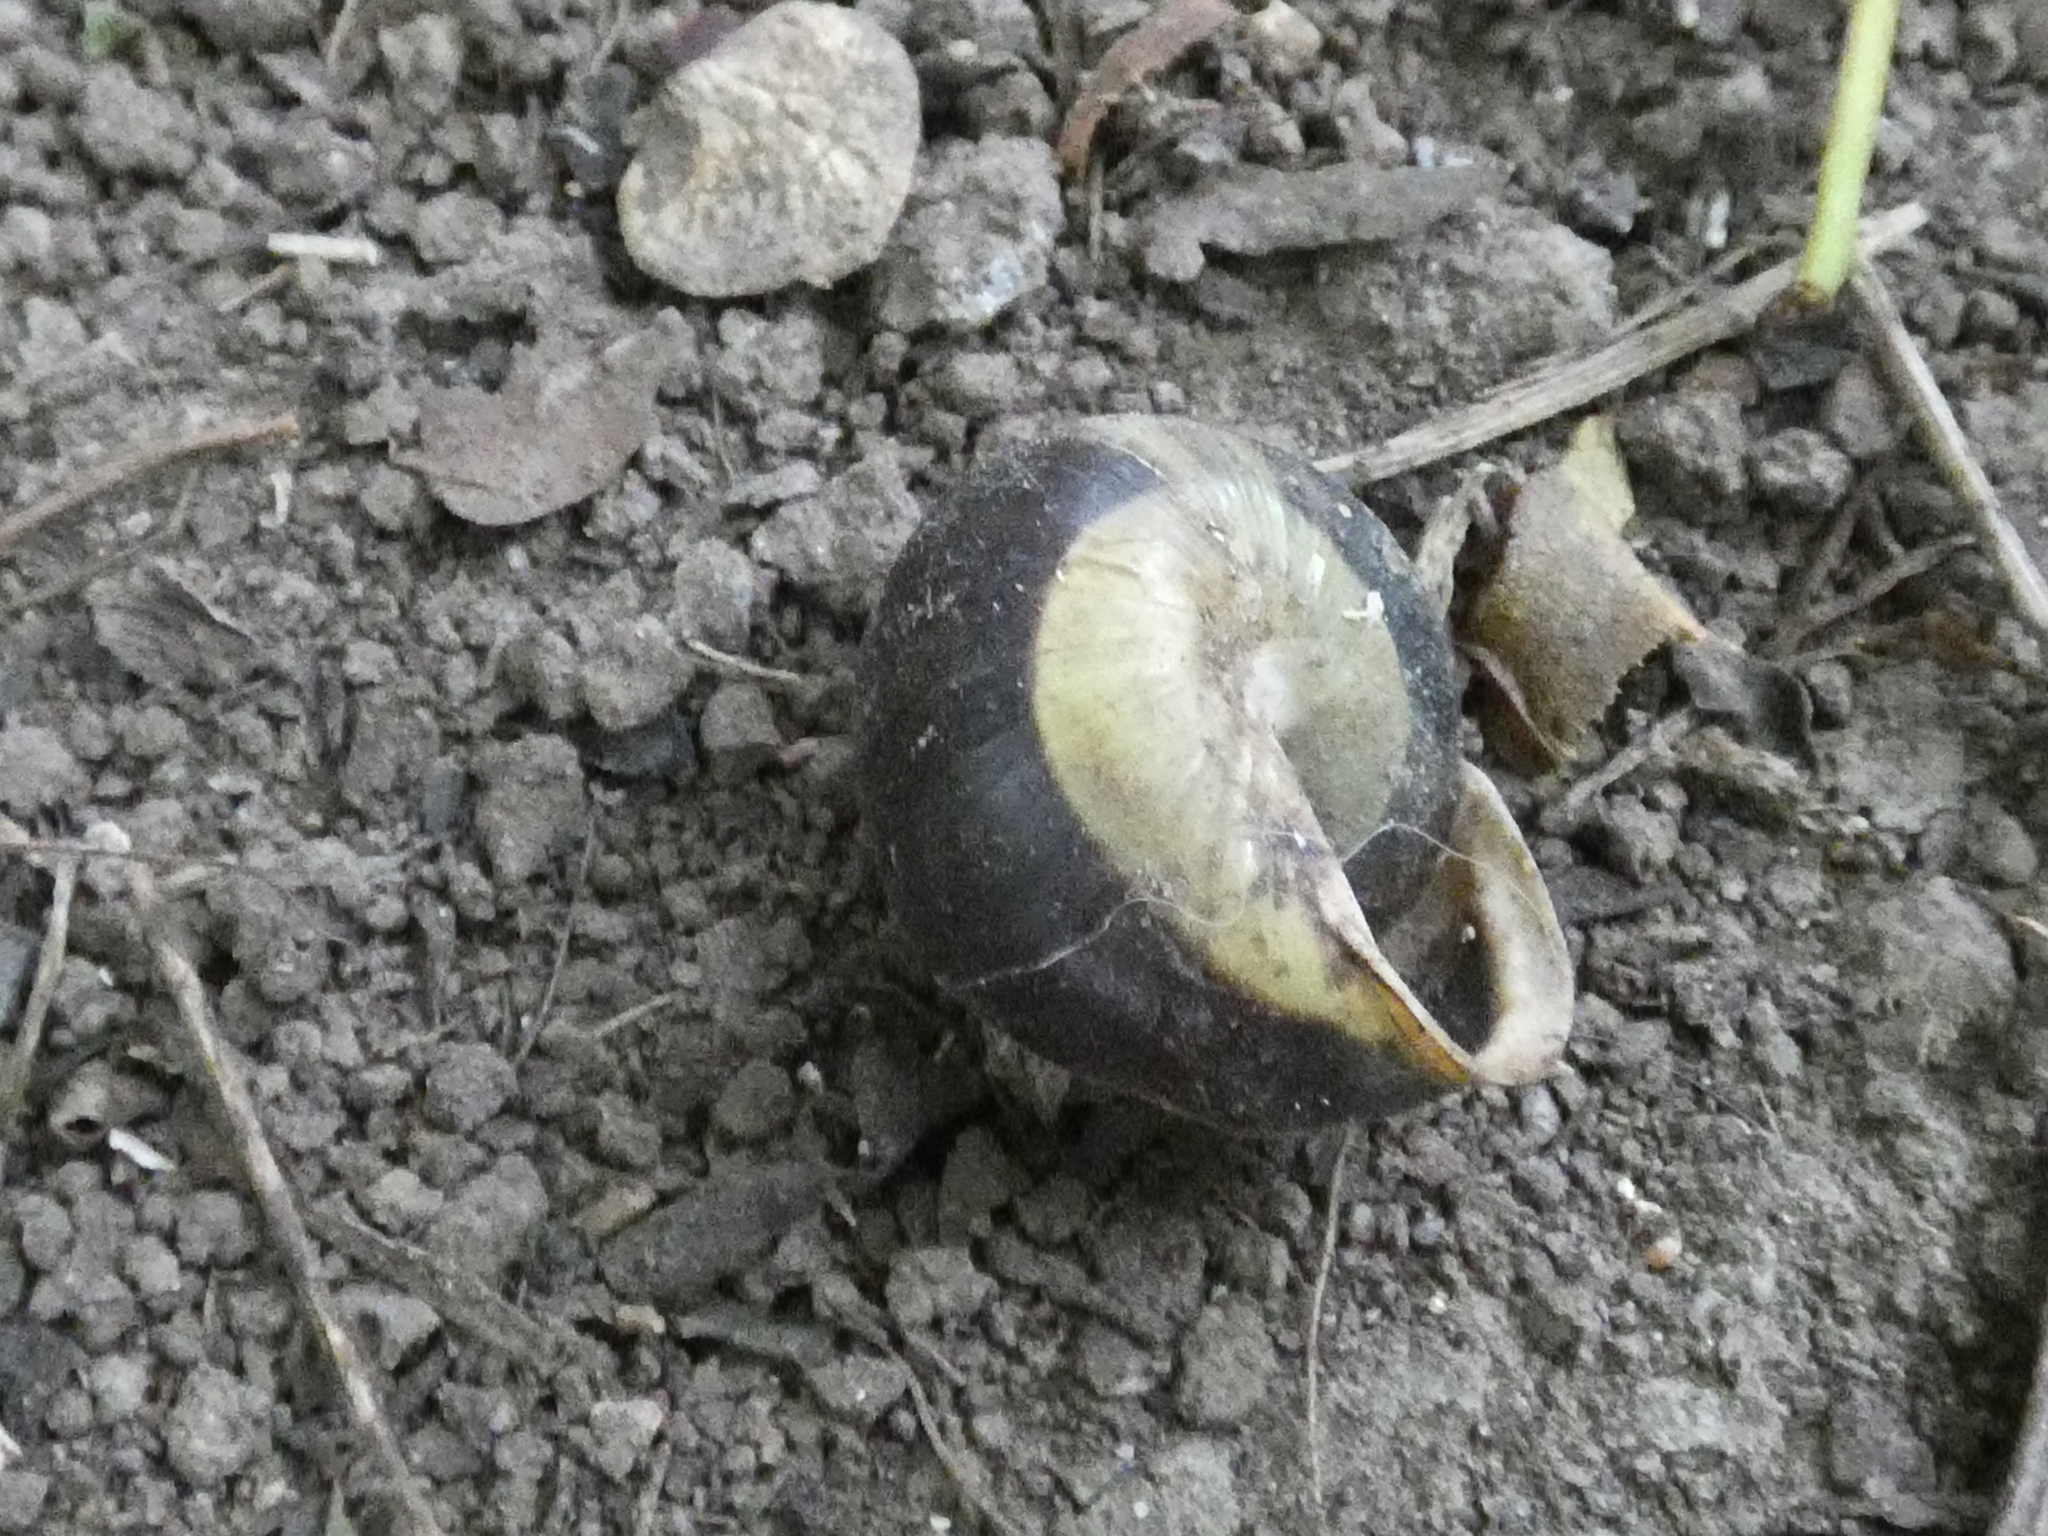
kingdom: Animalia
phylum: Mollusca
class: Gastropoda
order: Stylommatophora
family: Helicidae
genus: Cepaea
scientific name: Cepaea hortensis
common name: White-lip gardensnail
